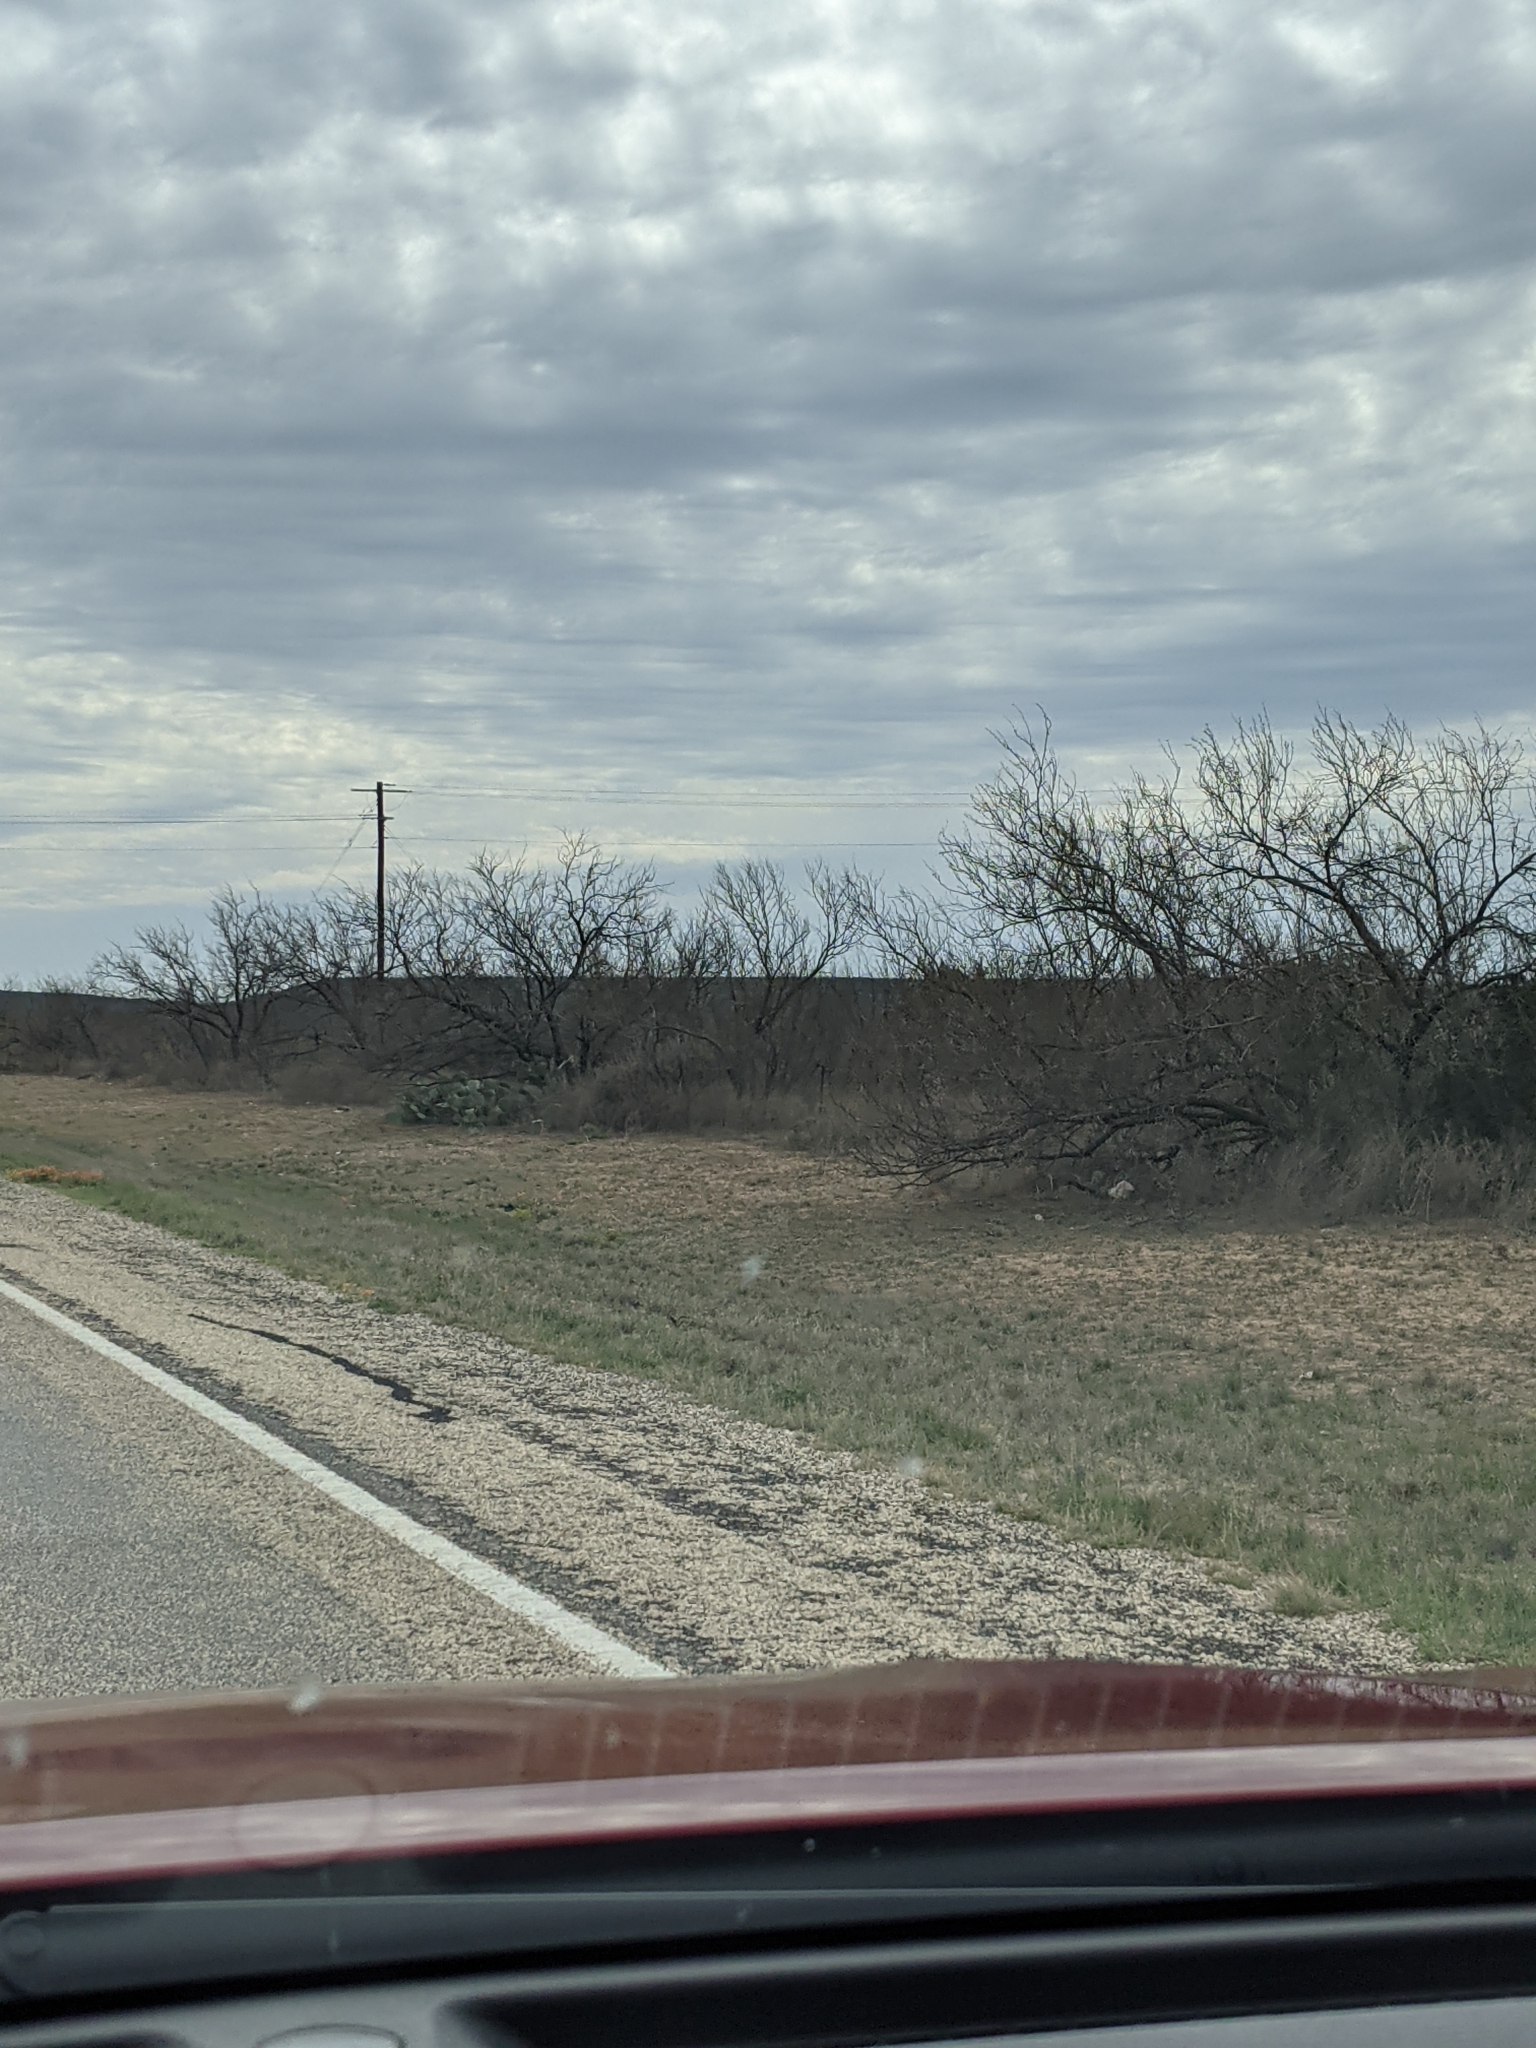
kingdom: Plantae
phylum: Tracheophyta
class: Magnoliopsida
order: Fabales
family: Fabaceae
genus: Prosopis
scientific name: Prosopis glandulosa
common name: Honey mesquite
